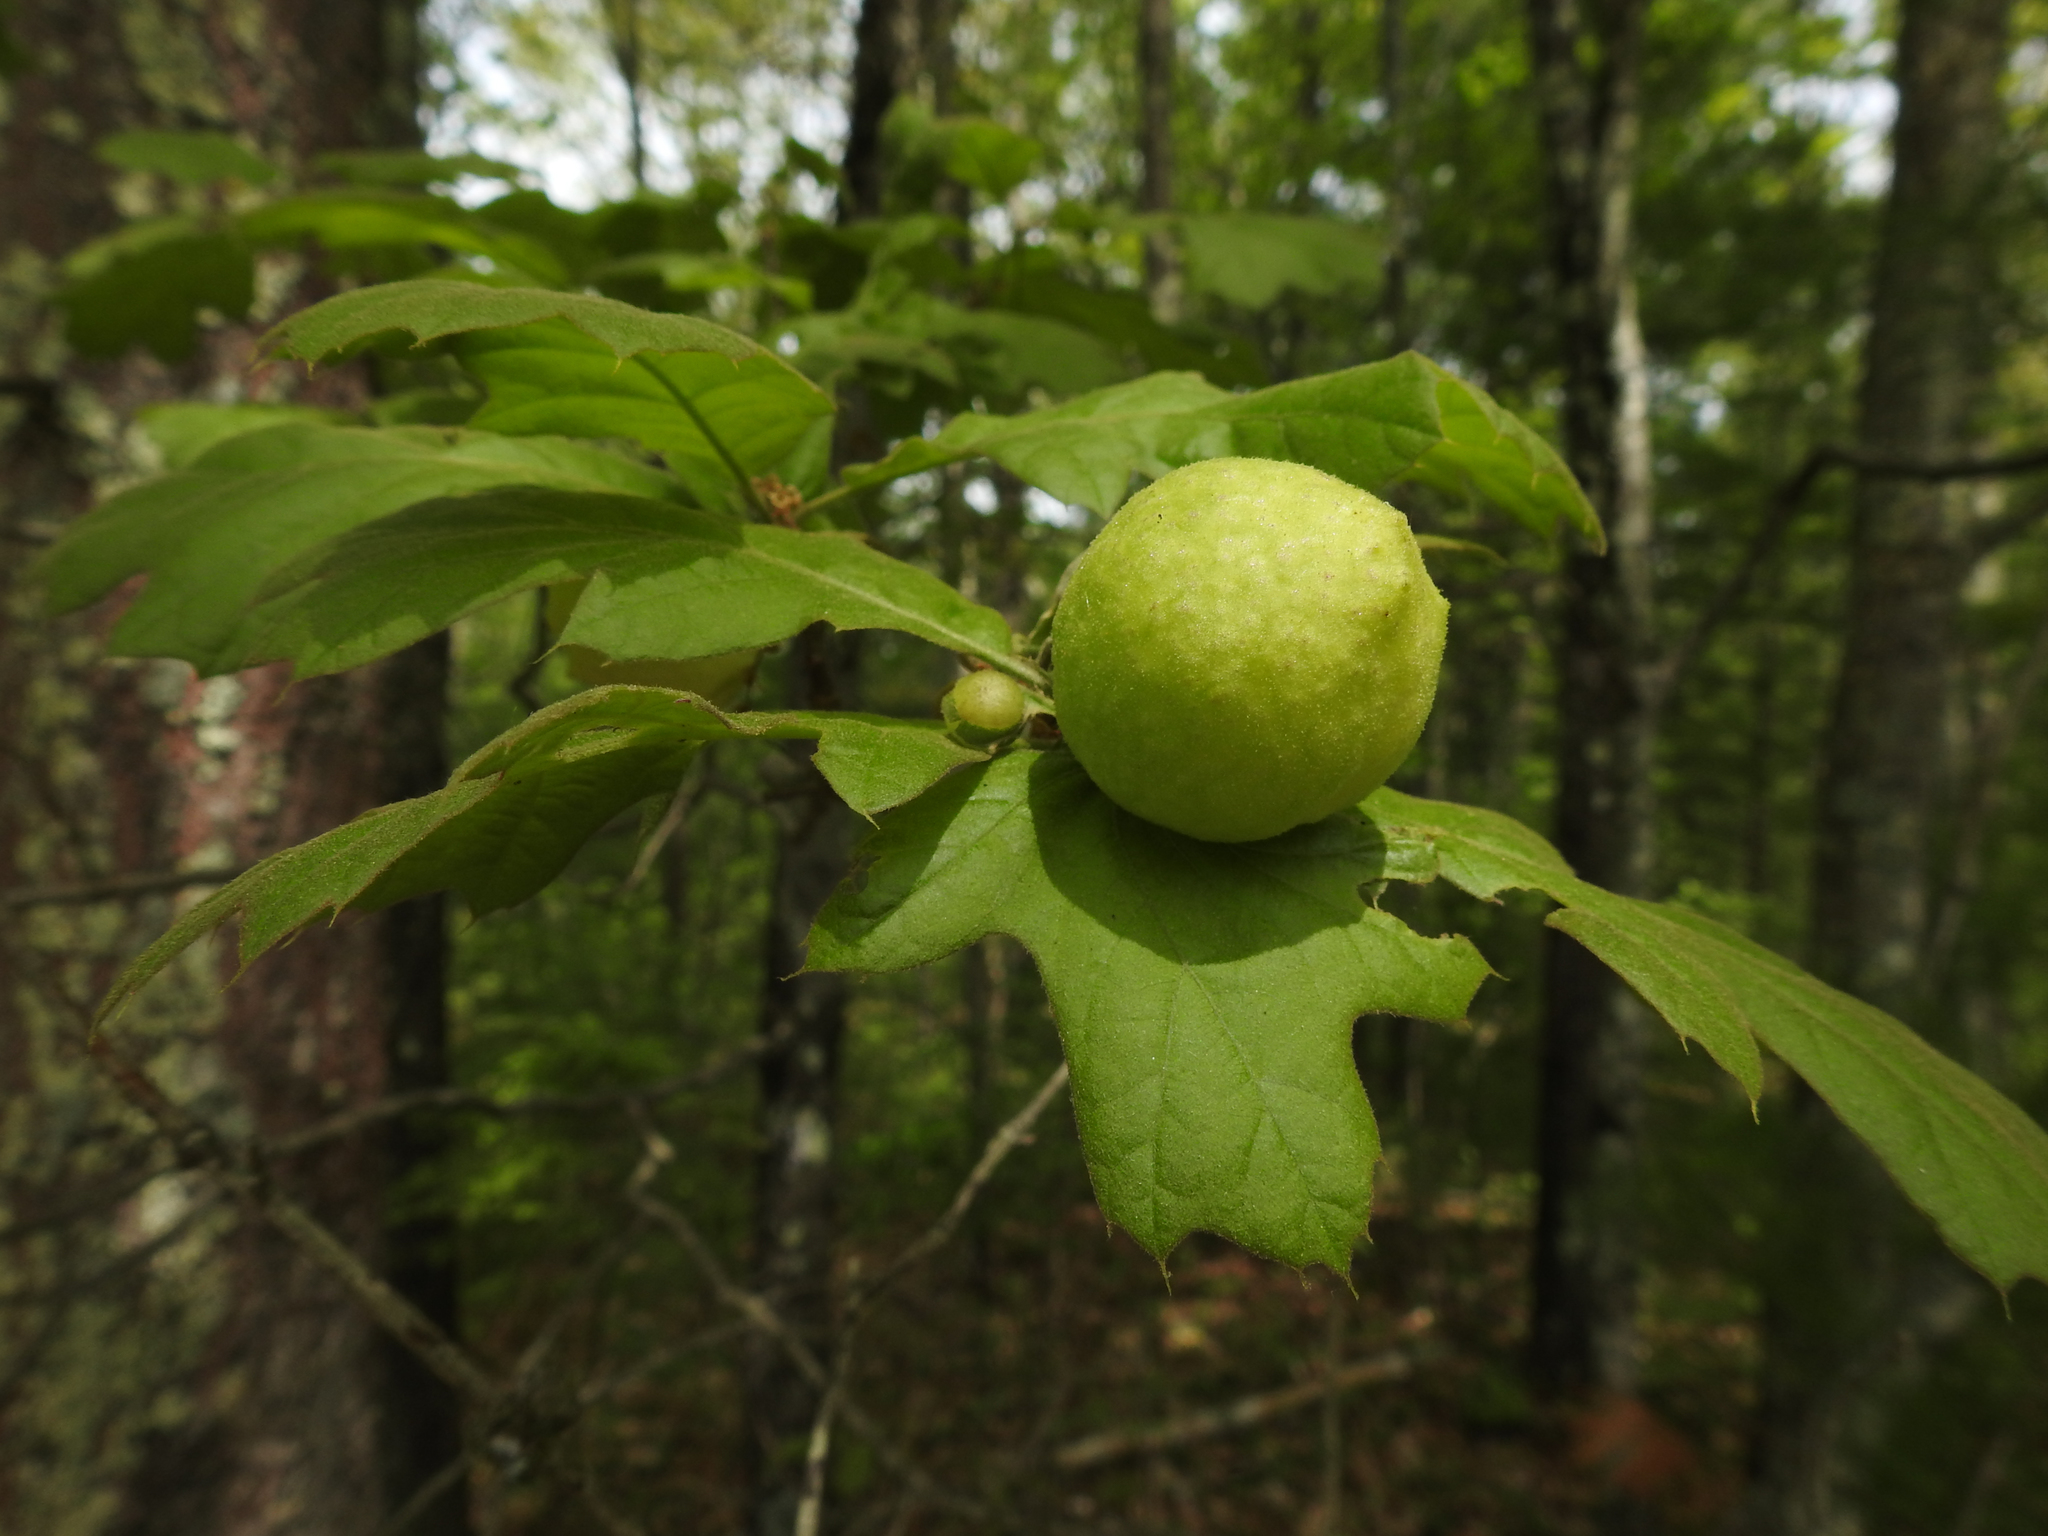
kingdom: Animalia
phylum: Arthropoda
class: Insecta
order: Hymenoptera
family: Cynipidae
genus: Amphibolips
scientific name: Amphibolips
